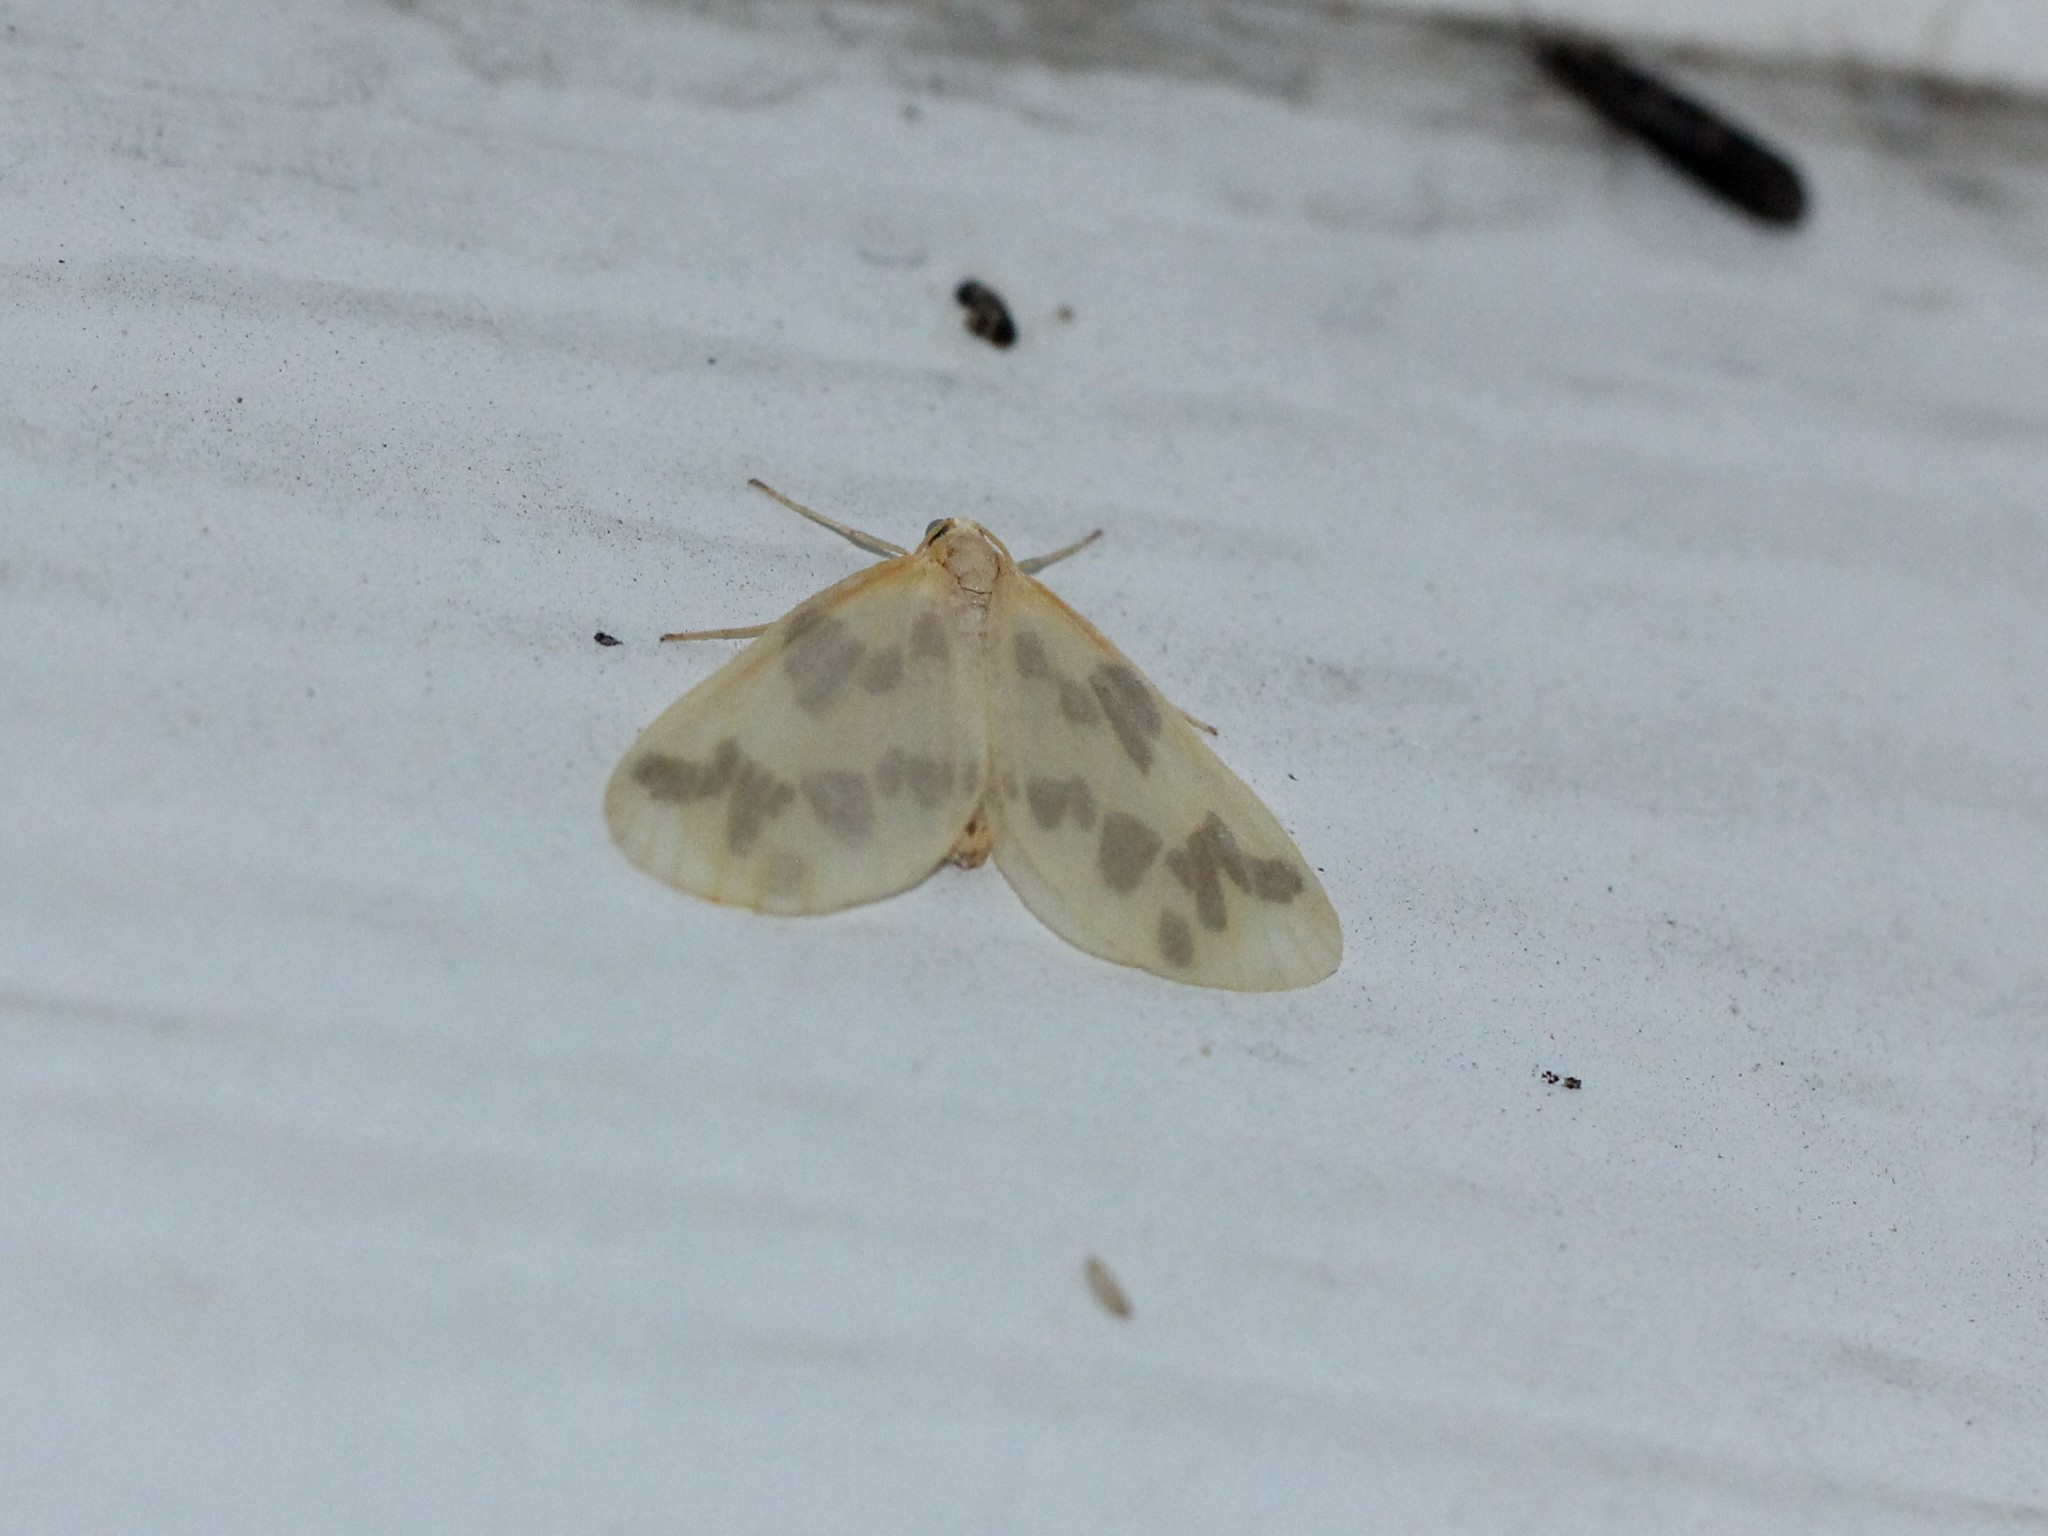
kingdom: Animalia
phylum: Arthropoda
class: Insecta
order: Lepidoptera
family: Geometridae
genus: Eubaphe
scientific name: Eubaphe mendica
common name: Beggar
